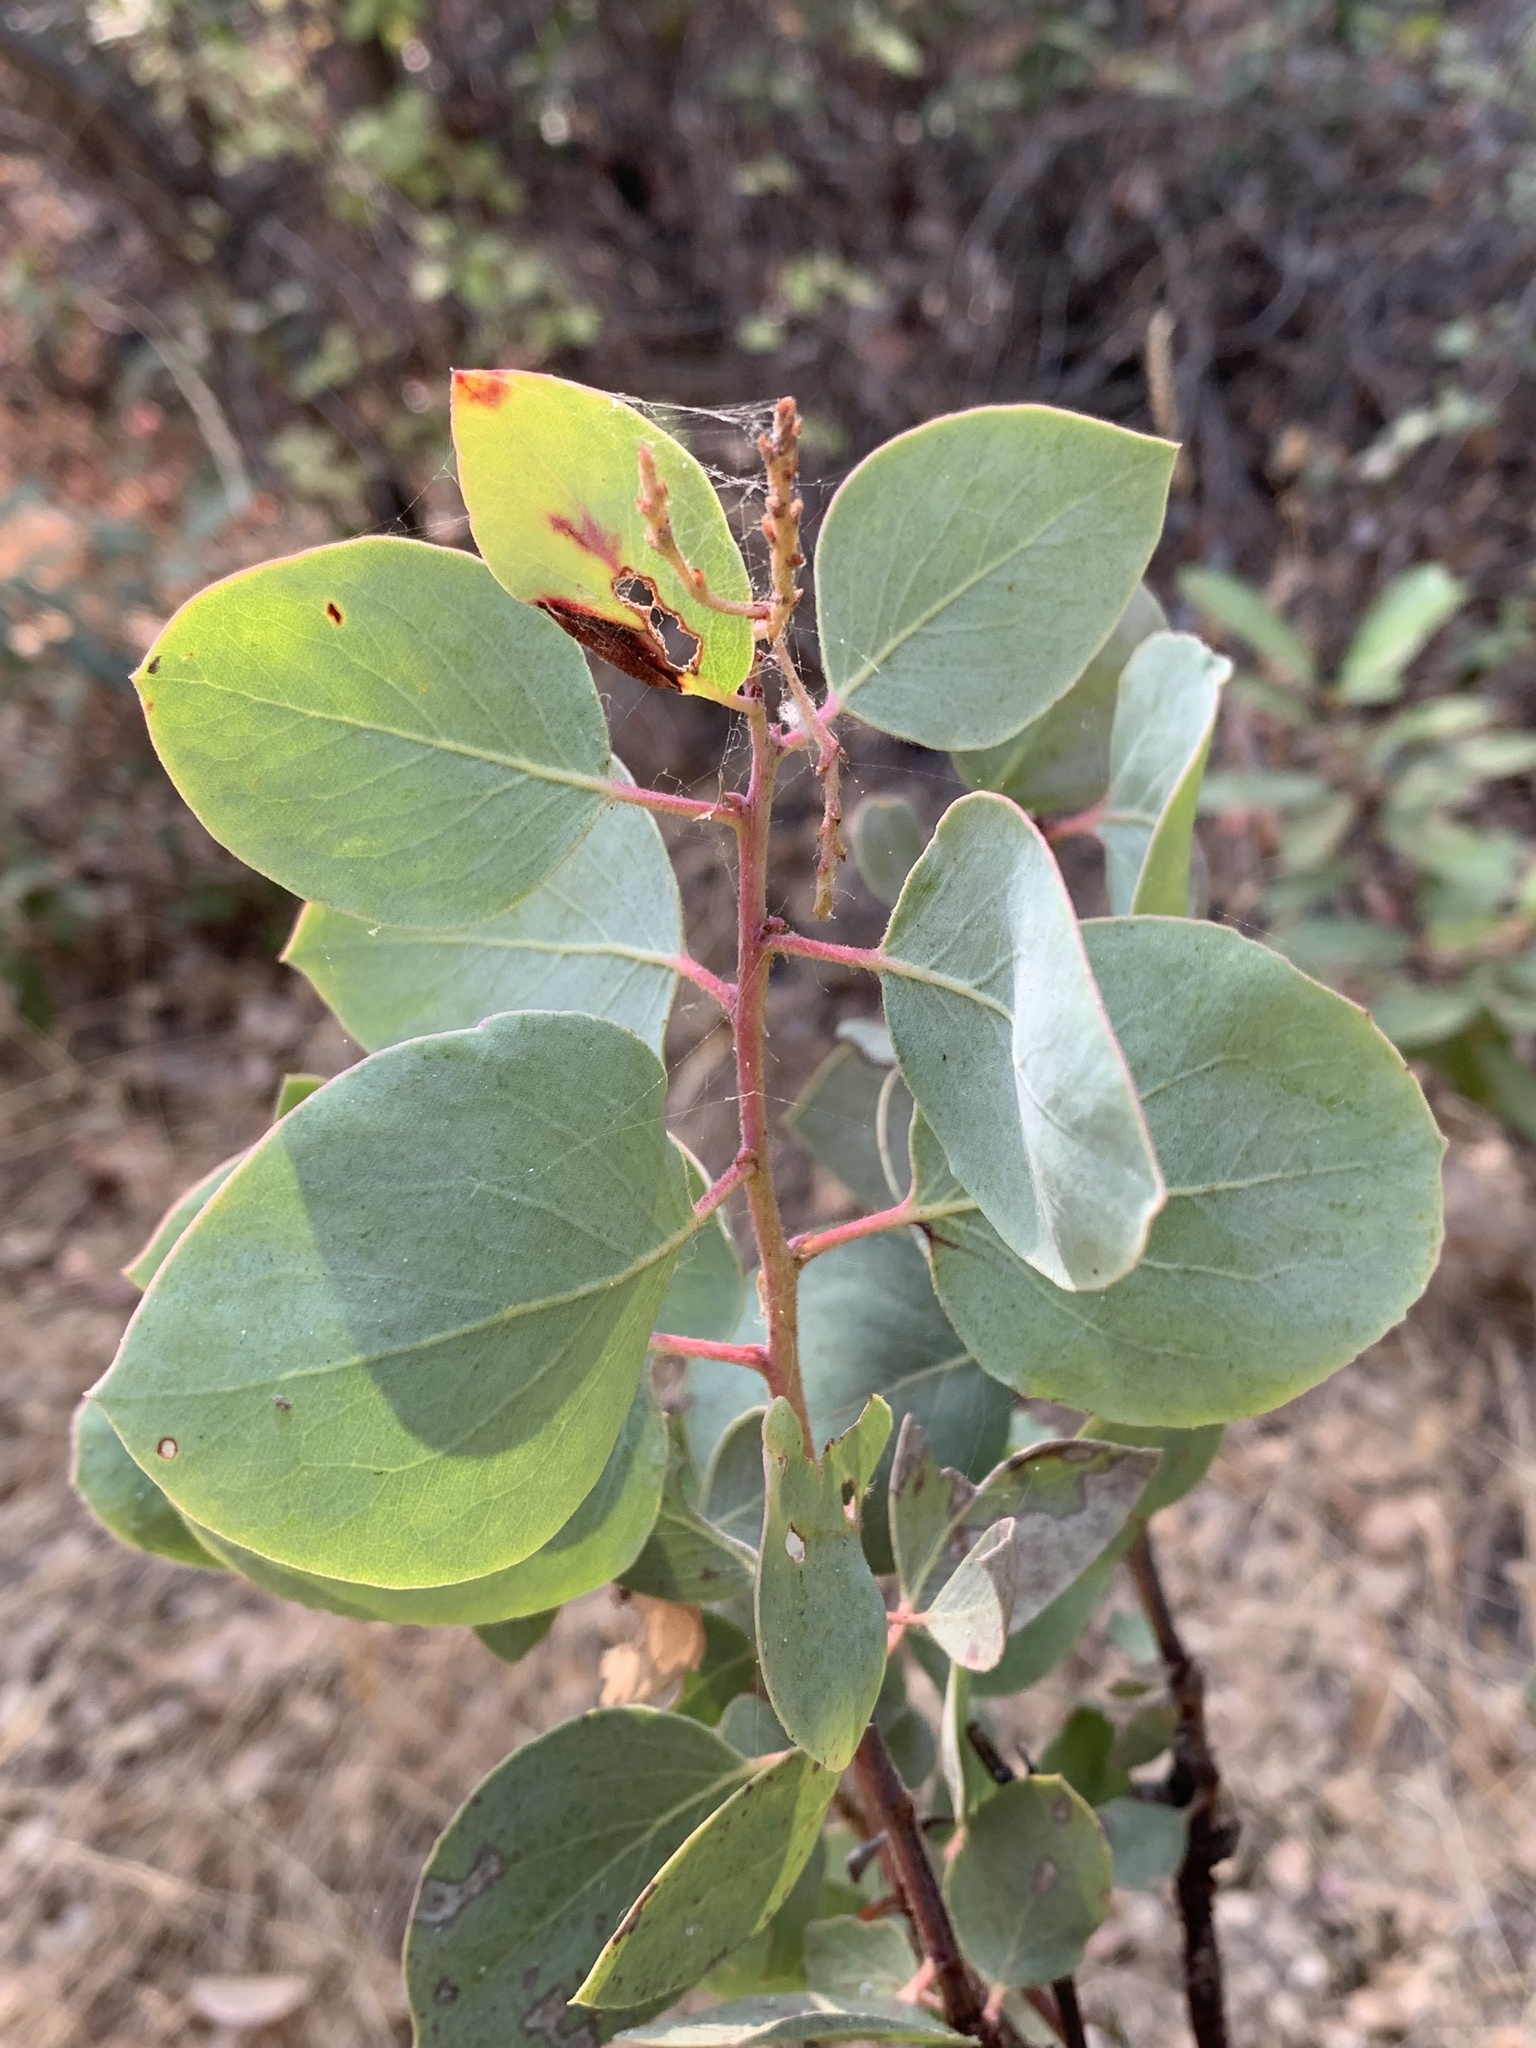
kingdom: Plantae
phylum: Tracheophyta
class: Magnoliopsida
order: Ericales
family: Ericaceae
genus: Arctostaphylos
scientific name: Arctostaphylos viscida
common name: White-leaf manzanita
